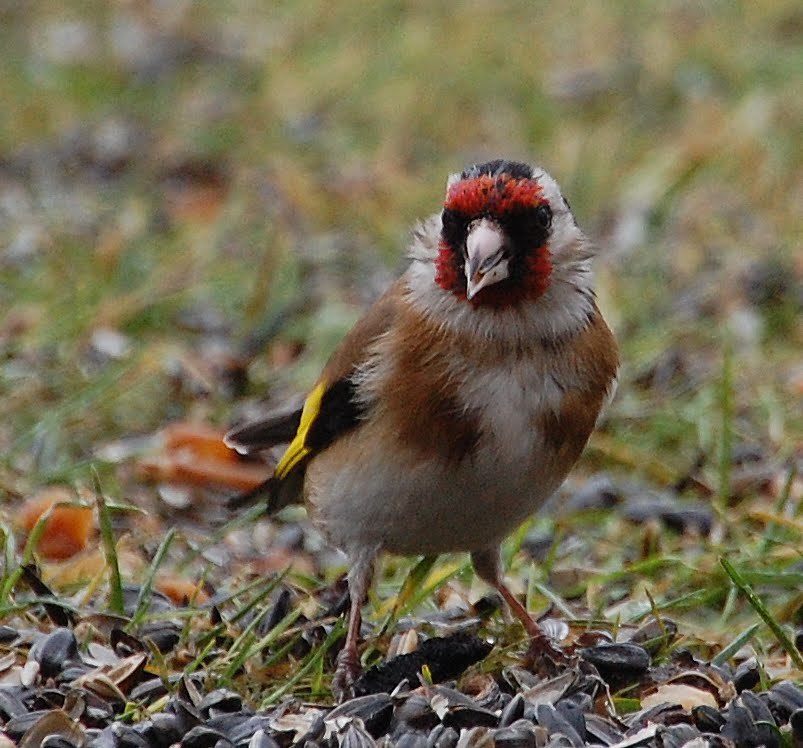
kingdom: Animalia
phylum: Chordata
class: Aves
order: Passeriformes
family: Fringillidae
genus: Carduelis
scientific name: Carduelis carduelis
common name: European goldfinch
